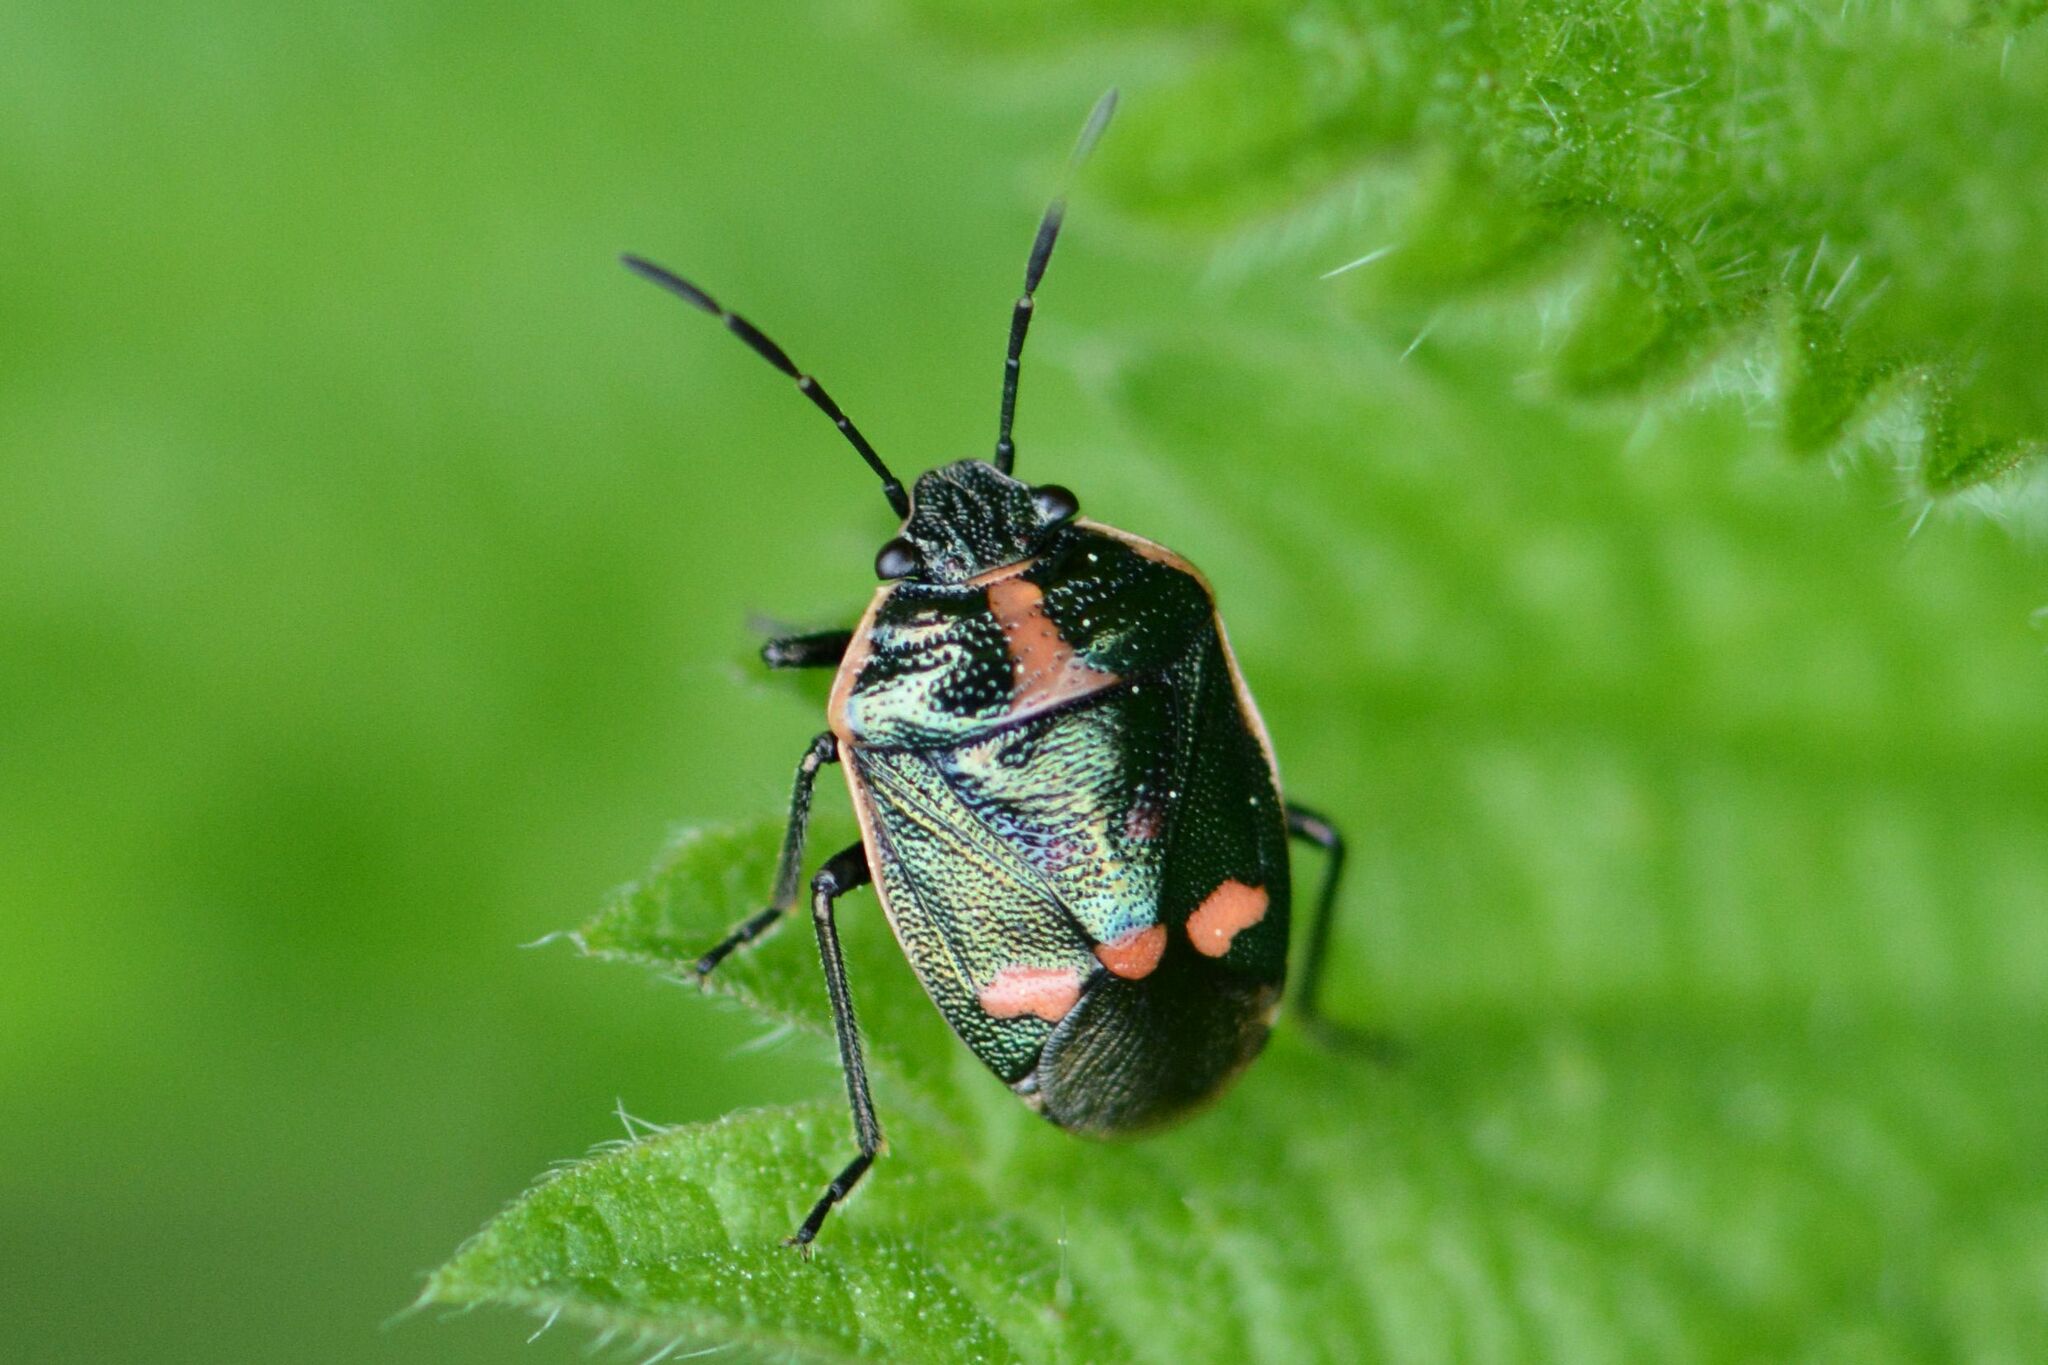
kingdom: Animalia
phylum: Arthropoda
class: Insecta
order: Hemiptera
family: Pentatomidae
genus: Eurydema
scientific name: Eurydema oleracea
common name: Cabbage bug
